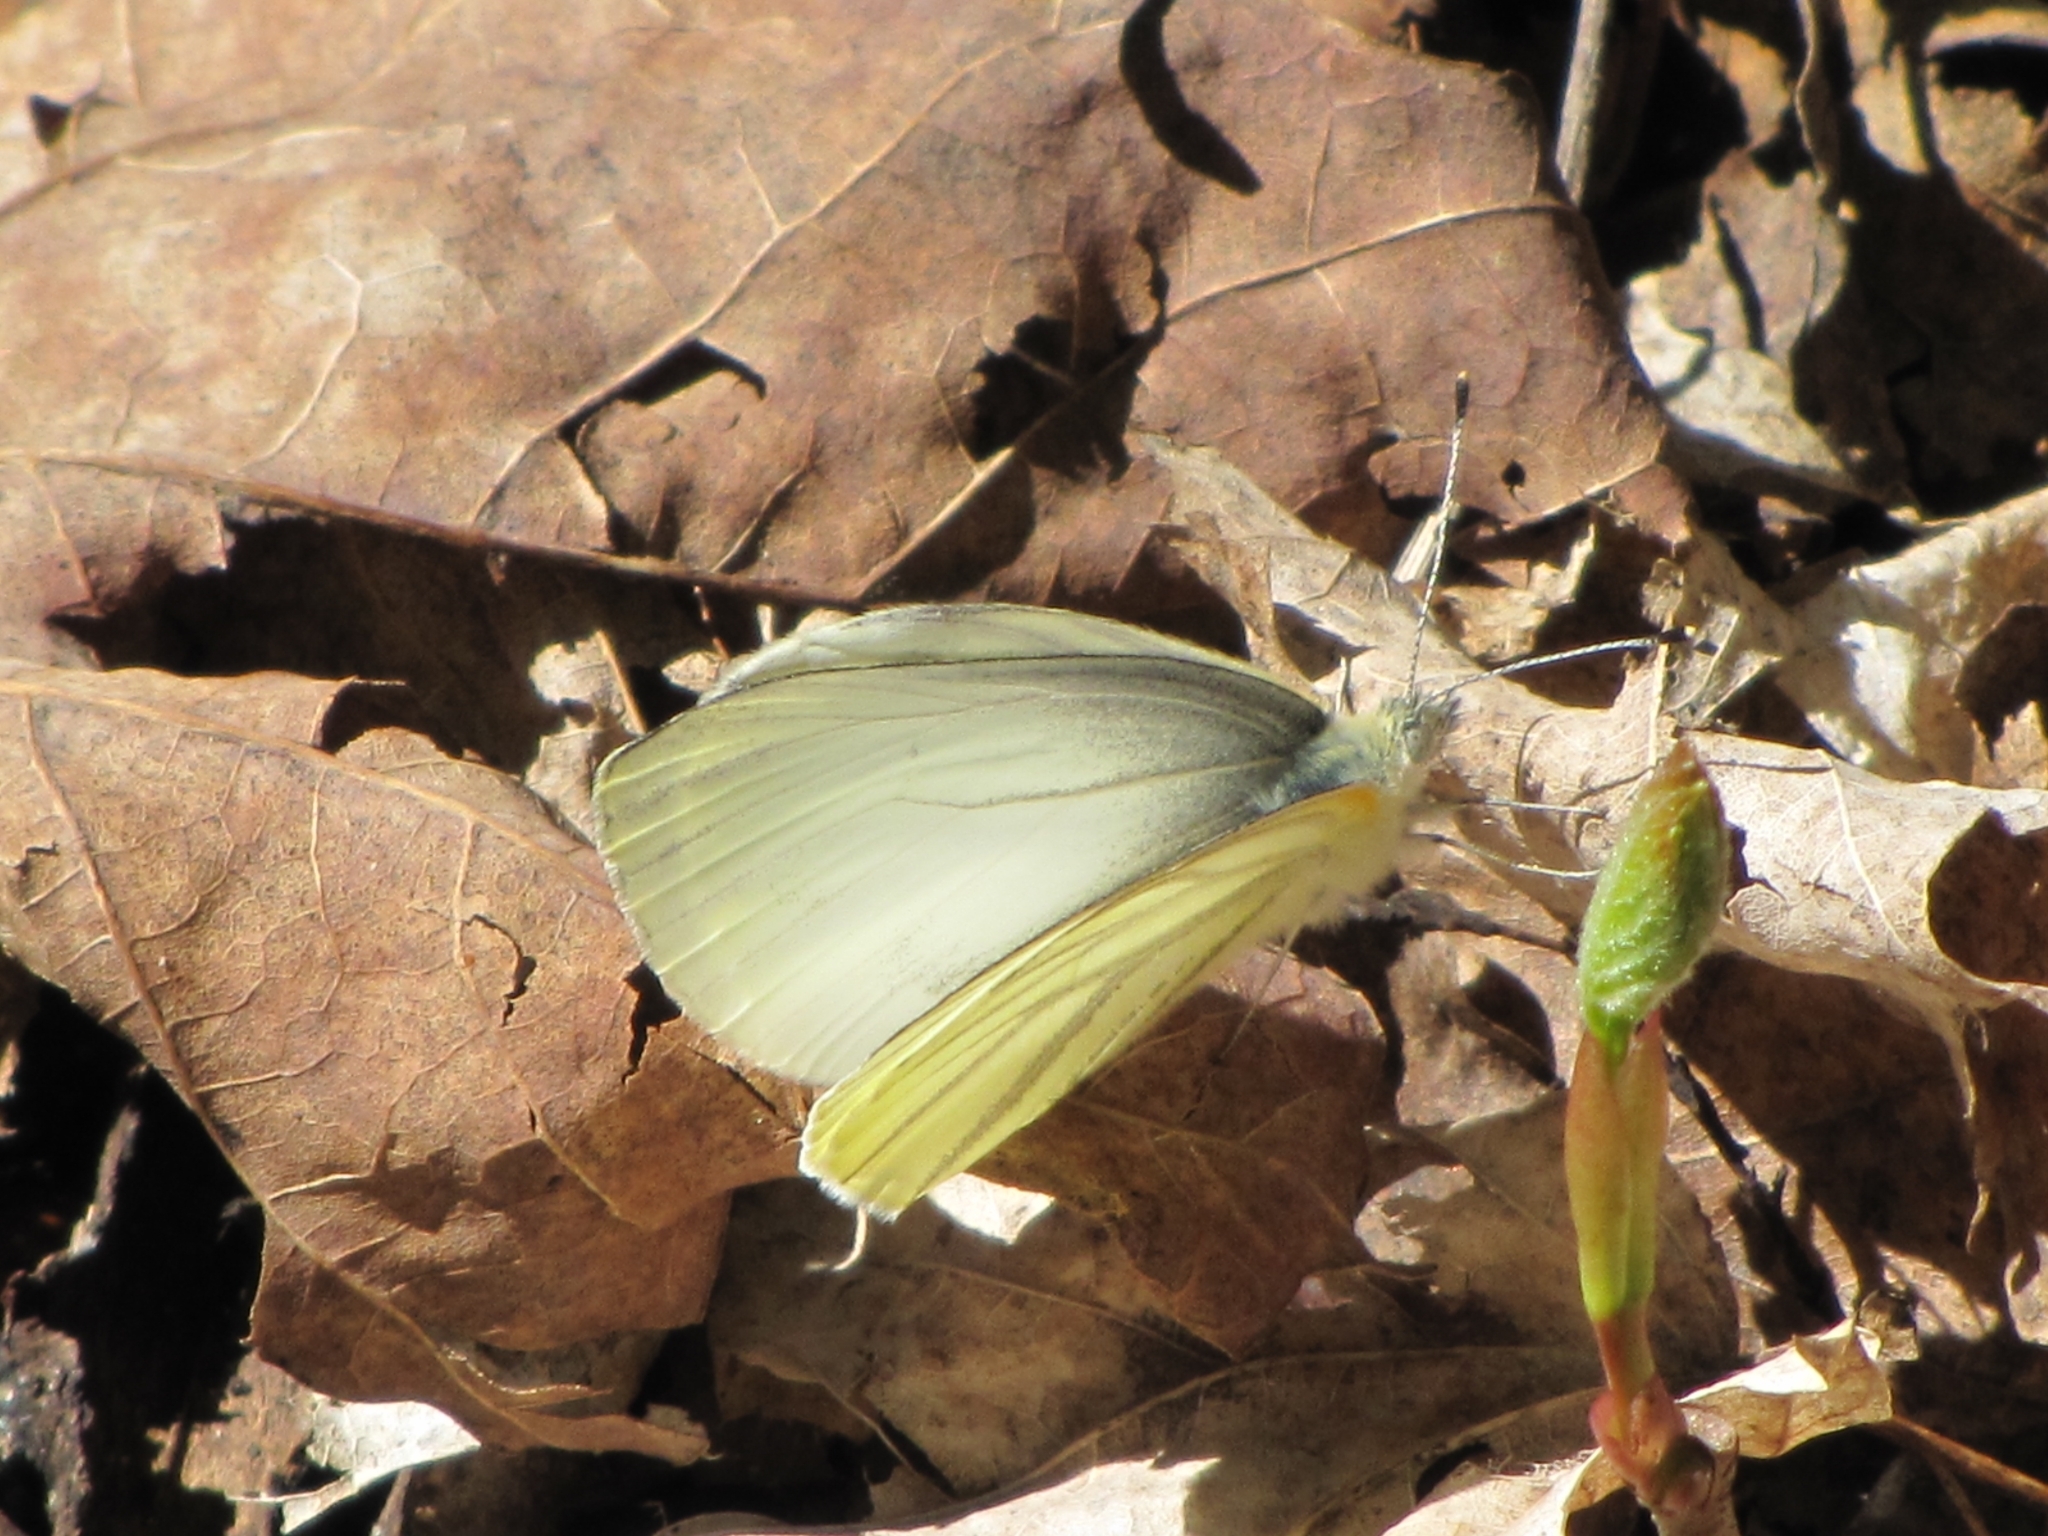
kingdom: Animalia
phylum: Arthropoda
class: Insecta
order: Lepidoptera
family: Pieridae
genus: Pieris
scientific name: Pieris oleracea
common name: Mustard white
